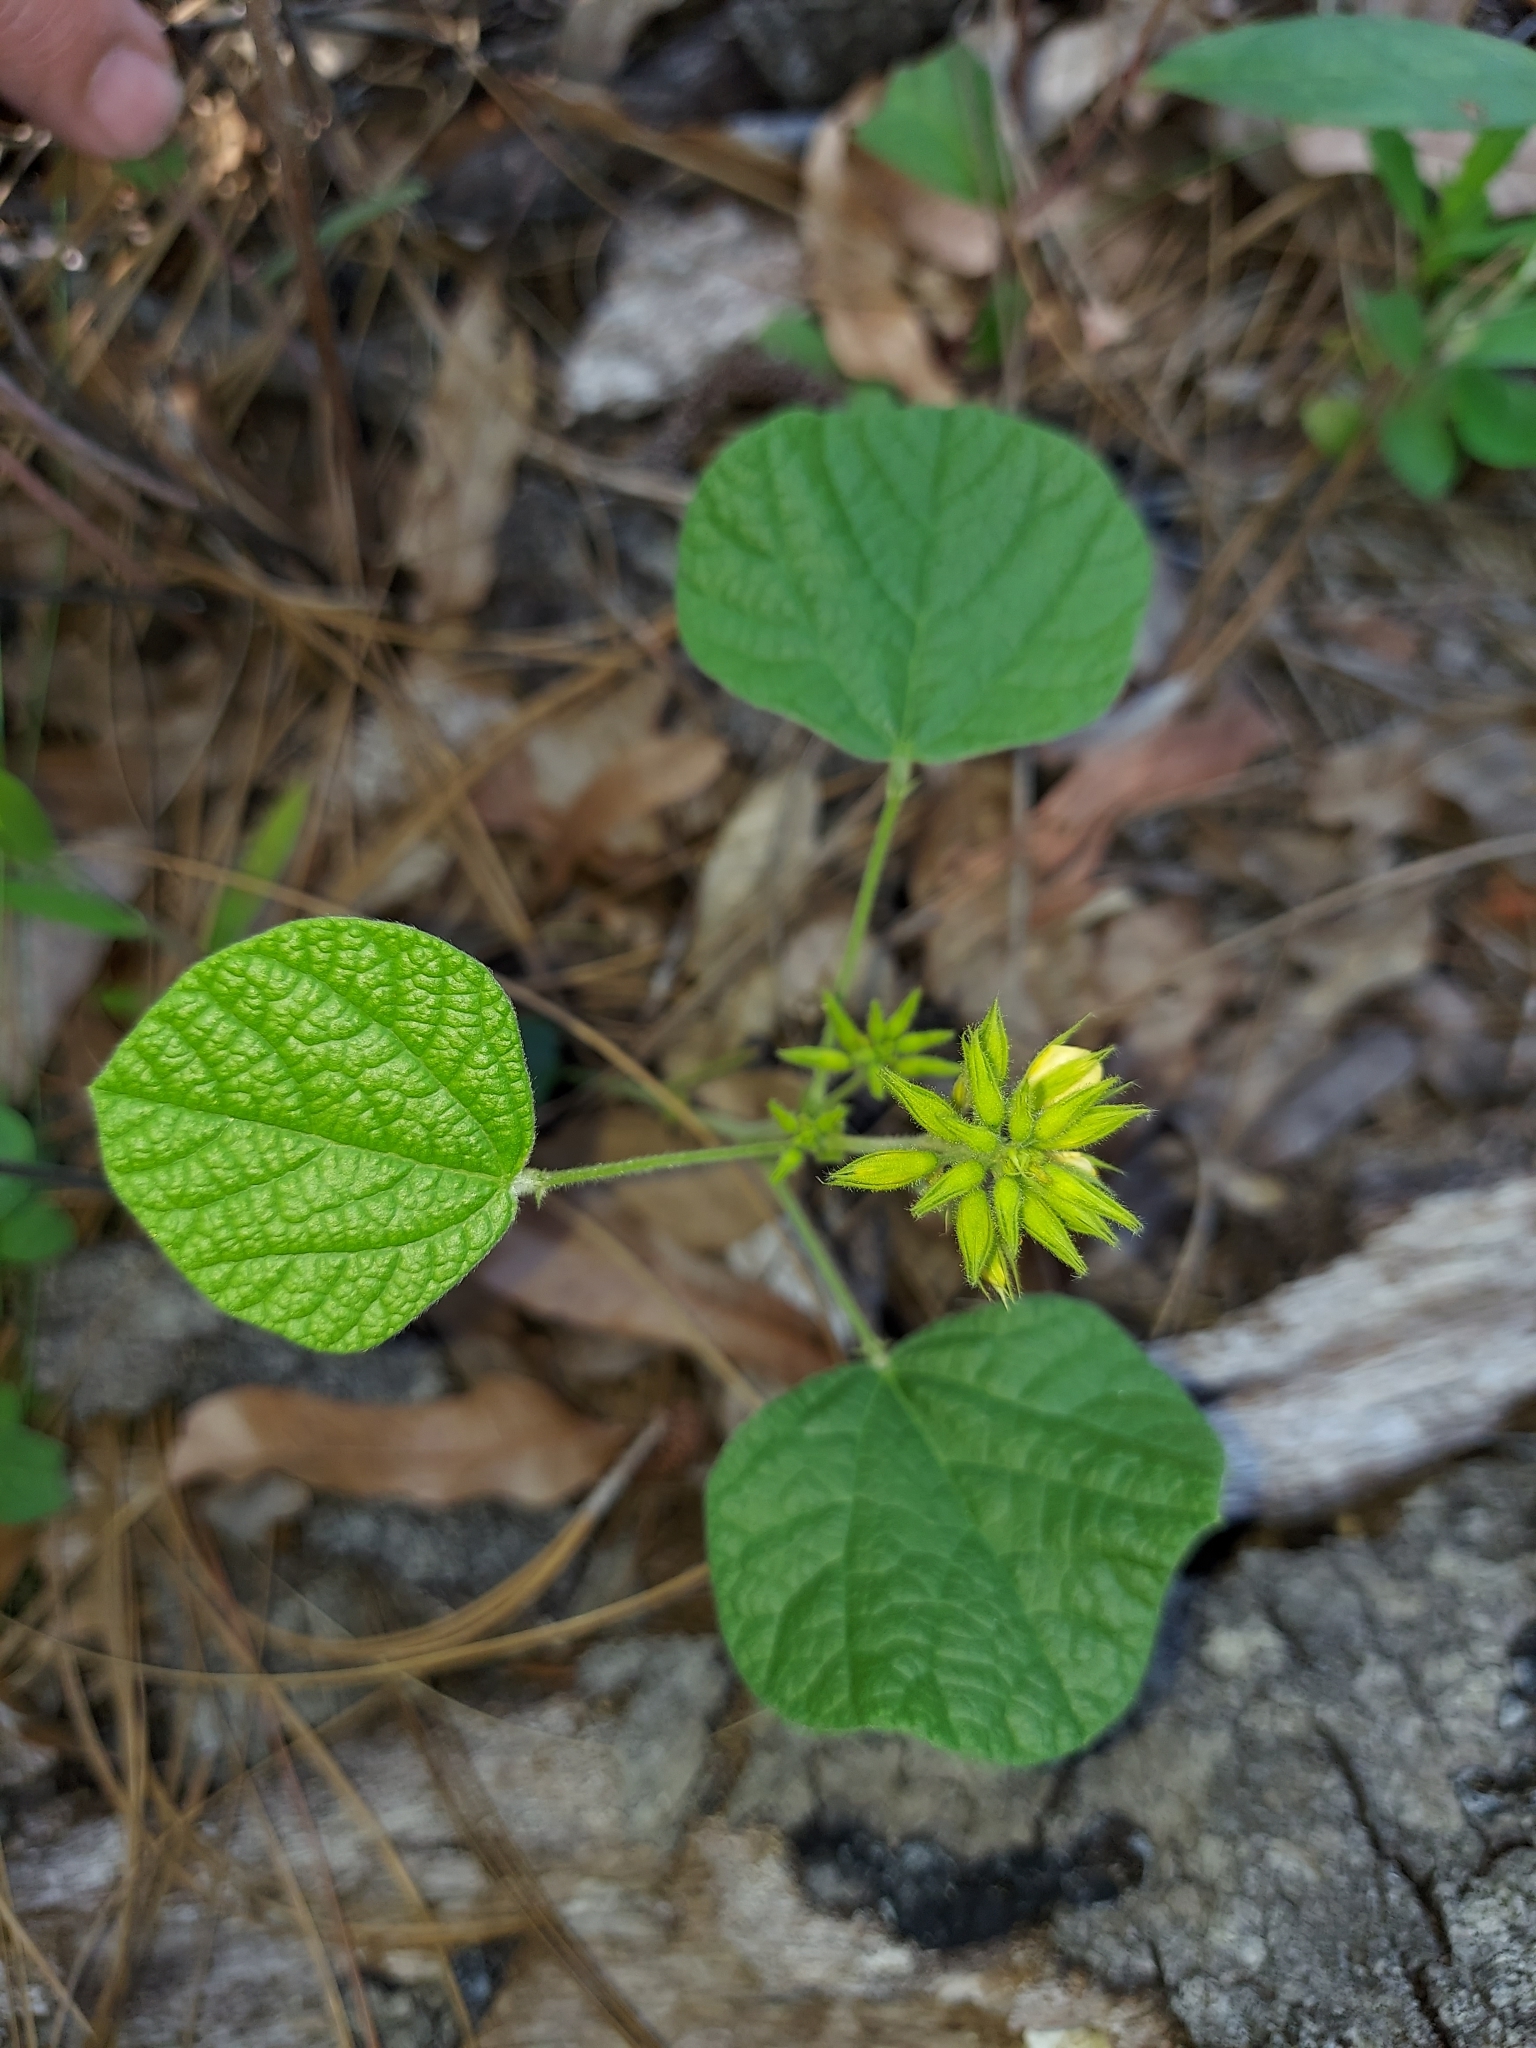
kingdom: Plantae
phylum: Tracheophyta
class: Magnoliopsida
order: Fabales
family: Fabaceae
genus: Rhynchosia
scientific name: Rhynchosia reniformis
